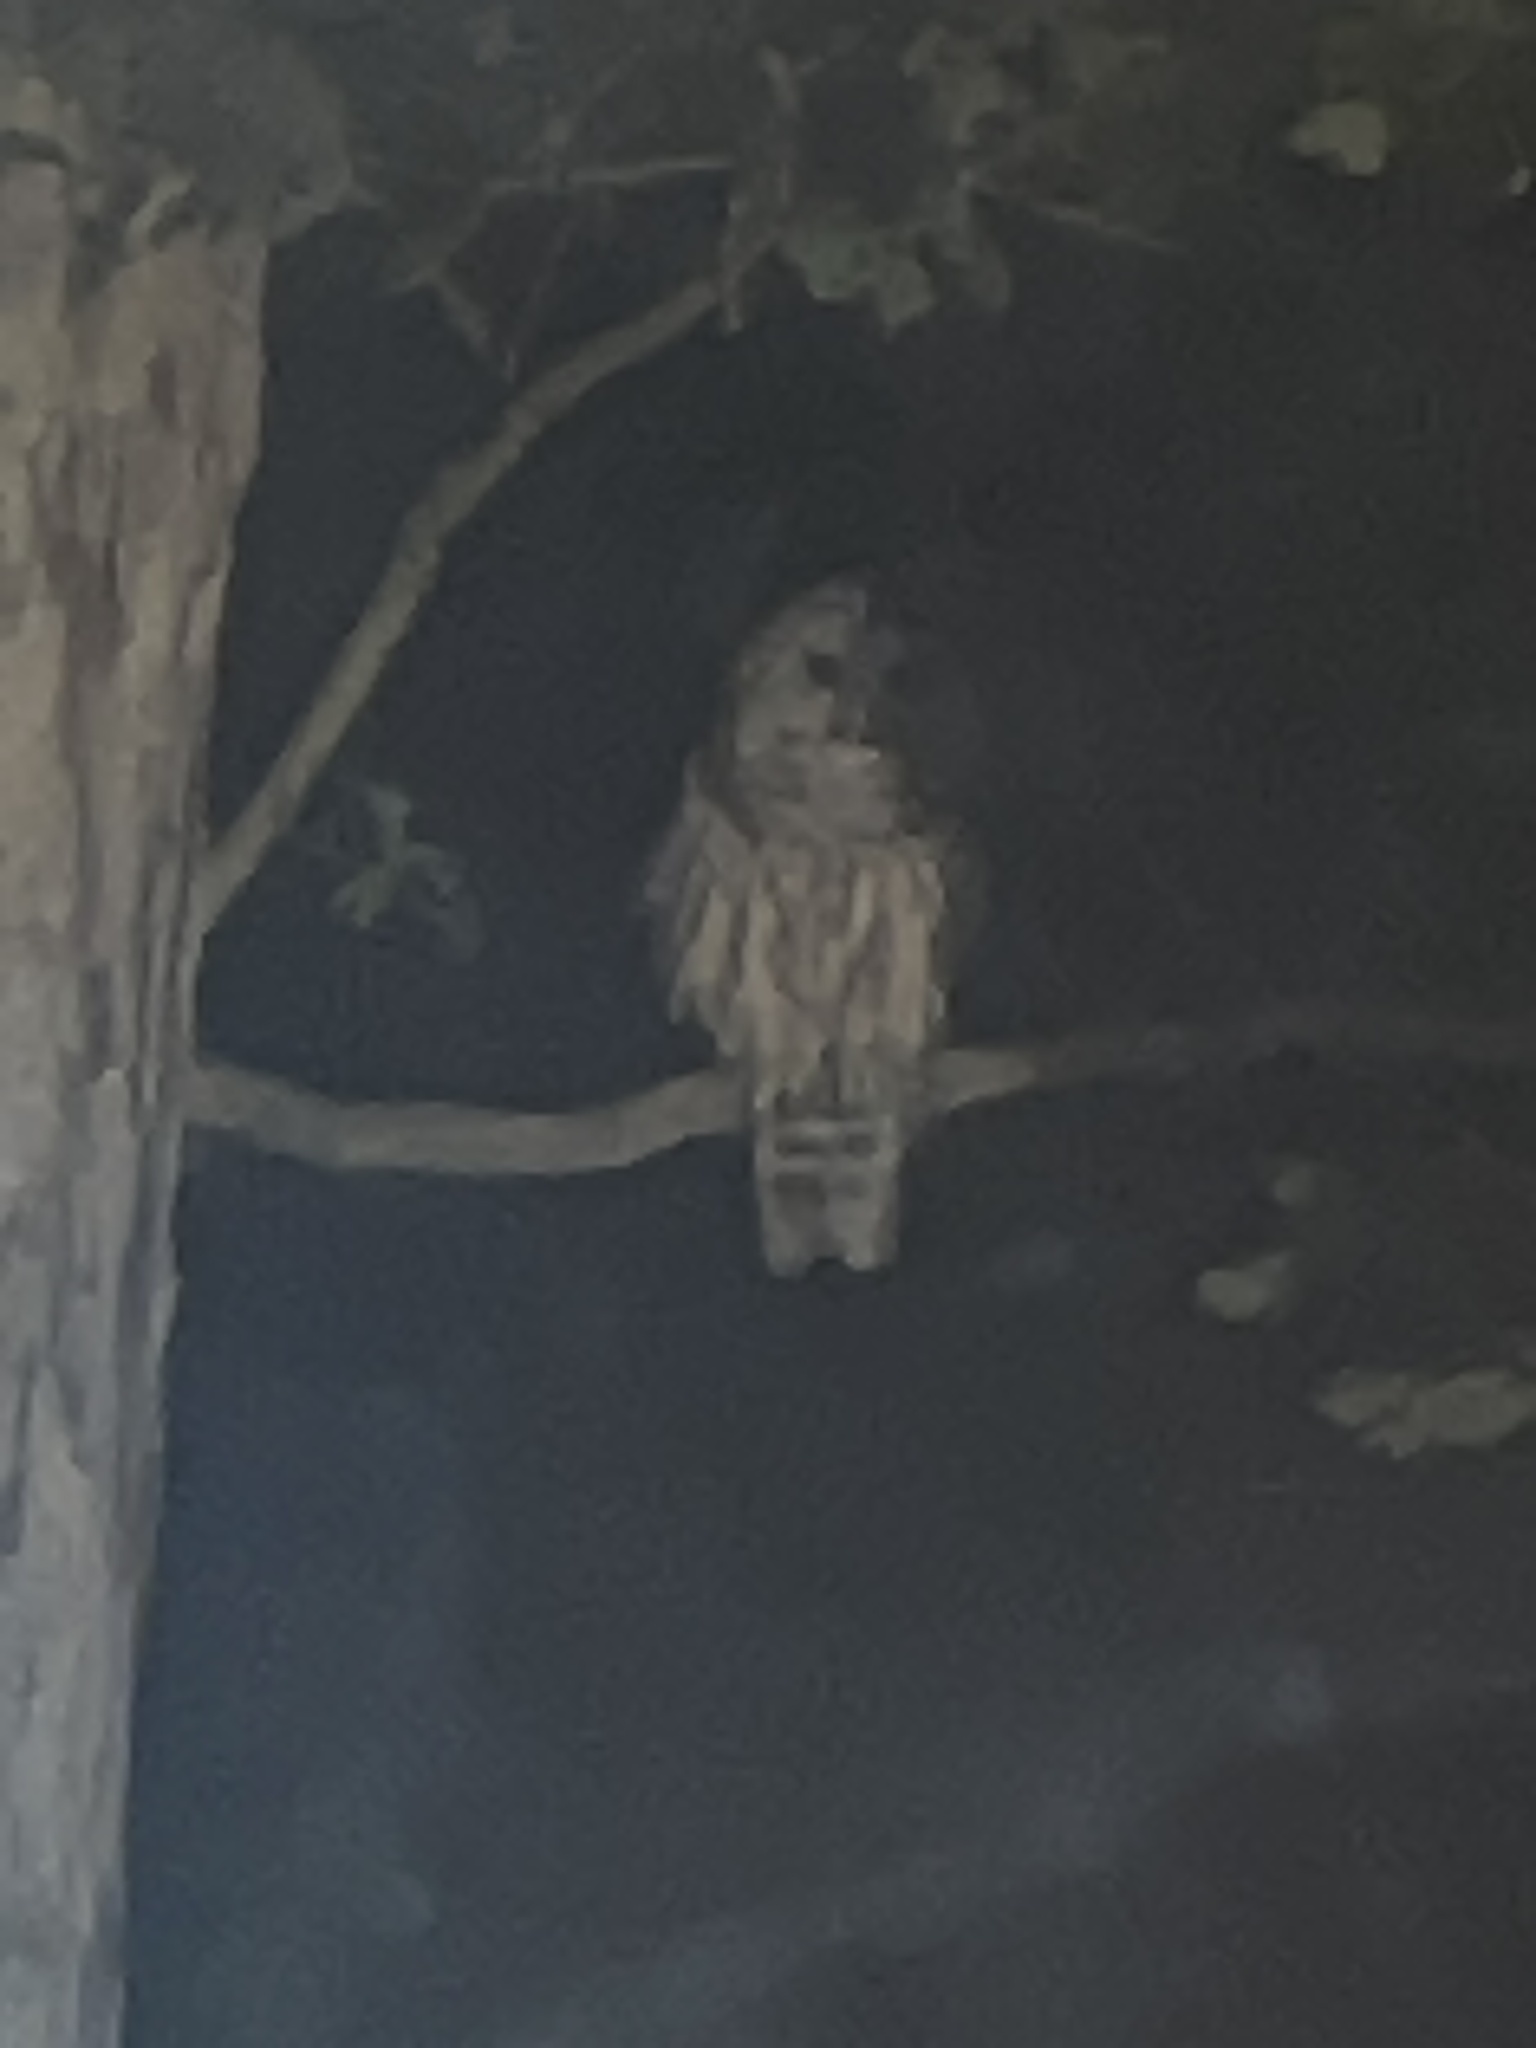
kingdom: Animalia
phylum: Chordata
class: Aves
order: Strigiformes
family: Strigidae
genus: Strix
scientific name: Strix varia
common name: Barred owl
